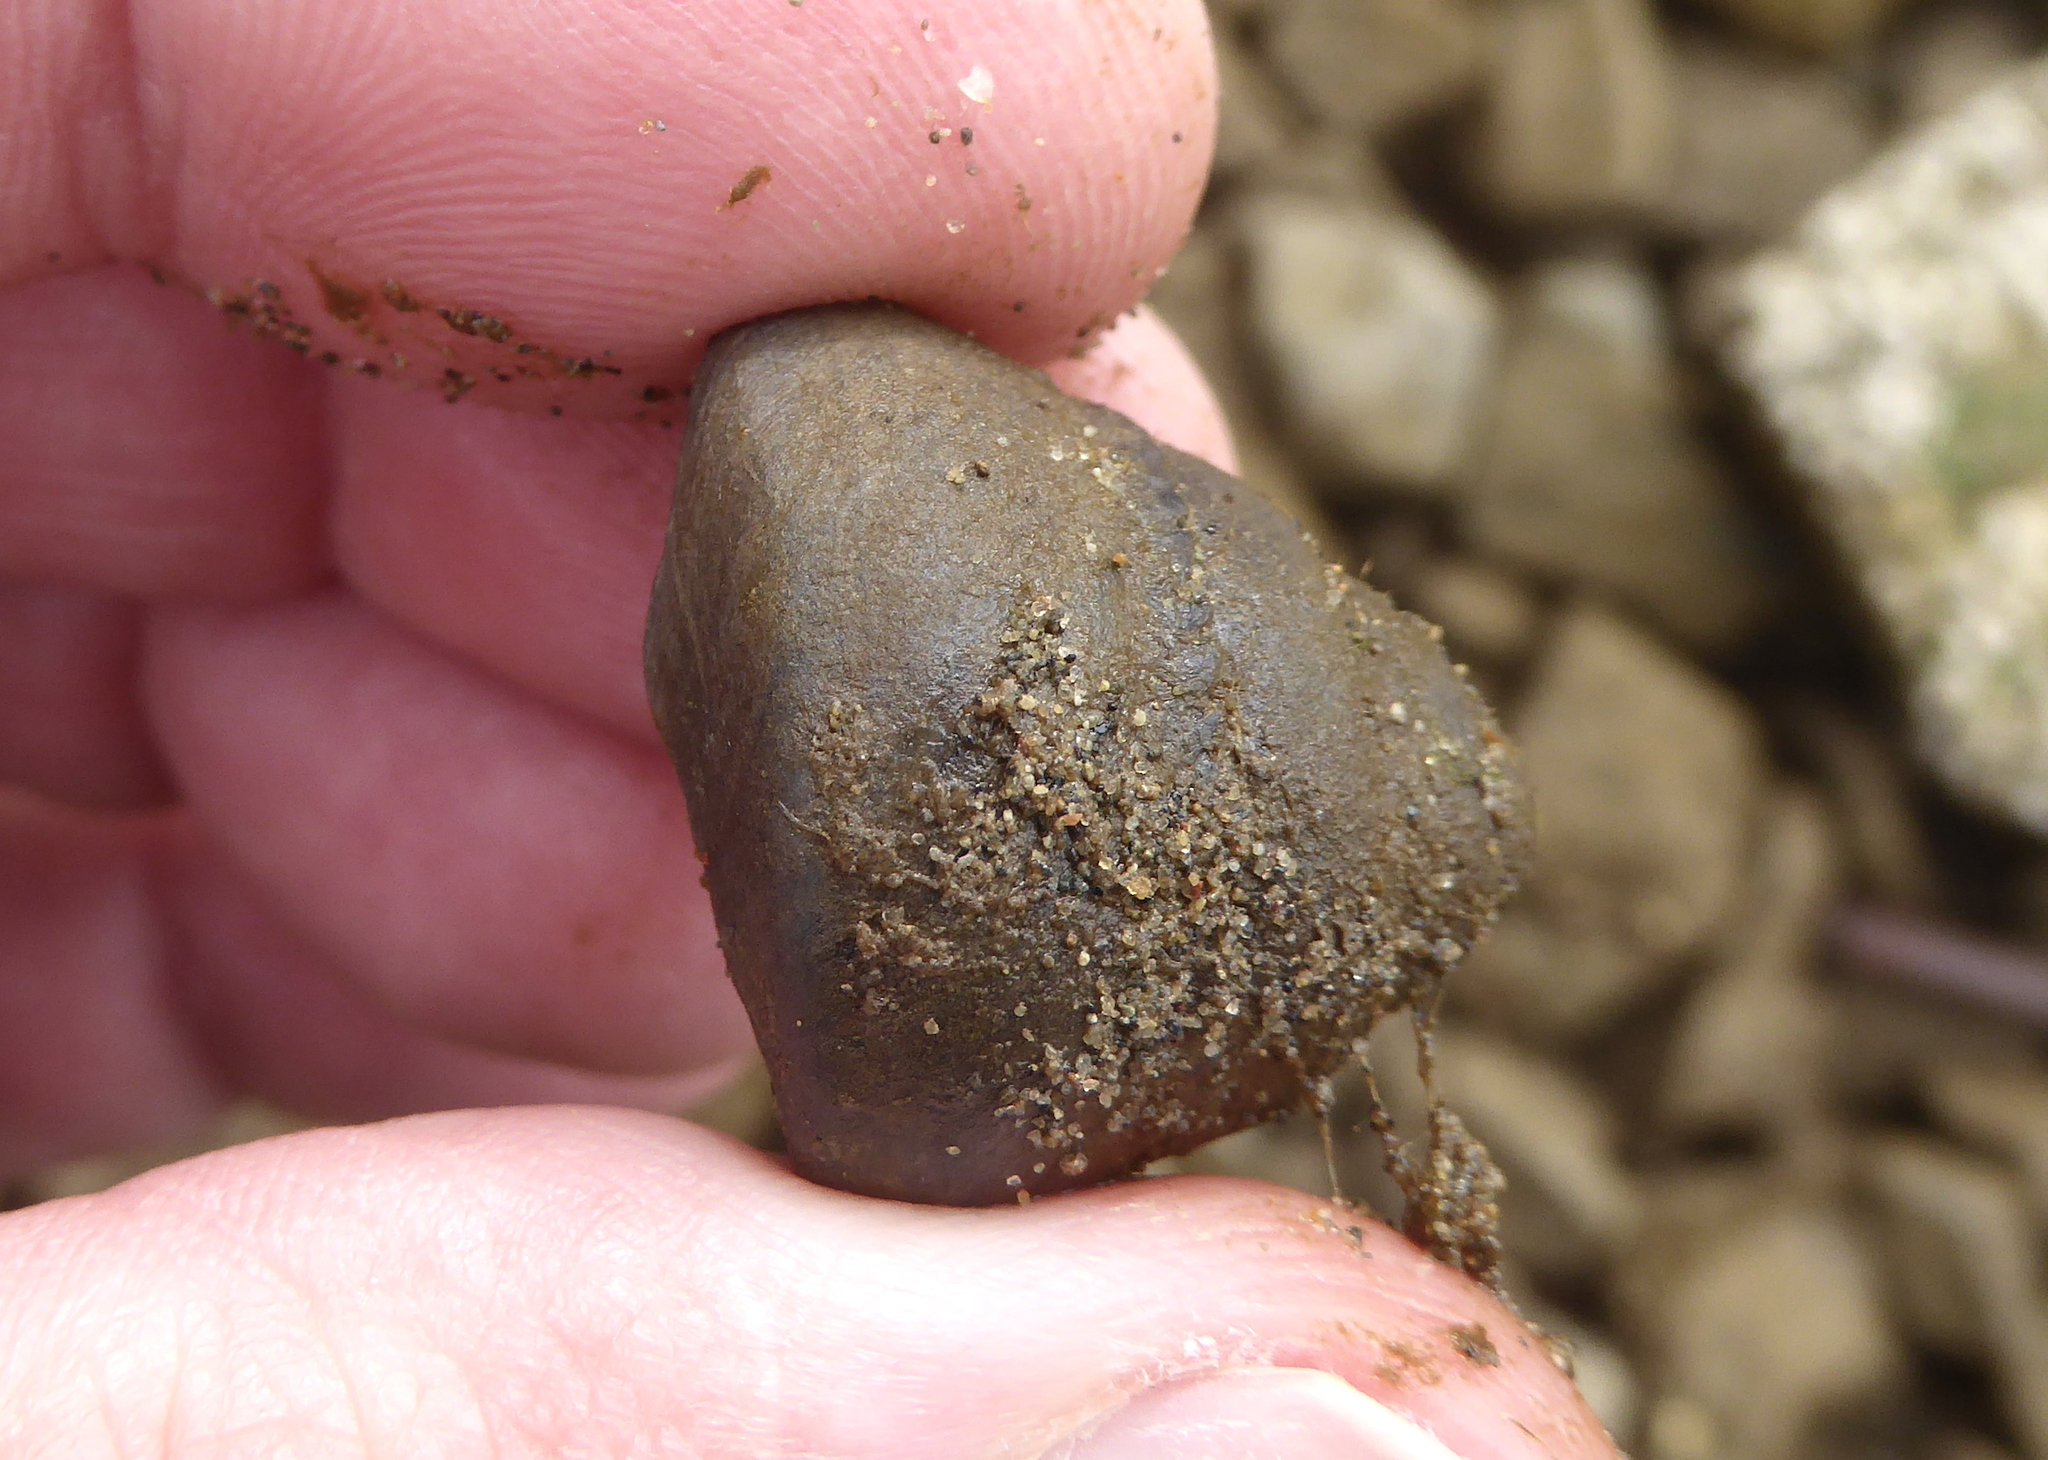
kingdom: Animalia
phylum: Mollusca
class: Gastropoda
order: Trochida
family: Tegulidae
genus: Tegula
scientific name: Tegula funebralis
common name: Black tegula
